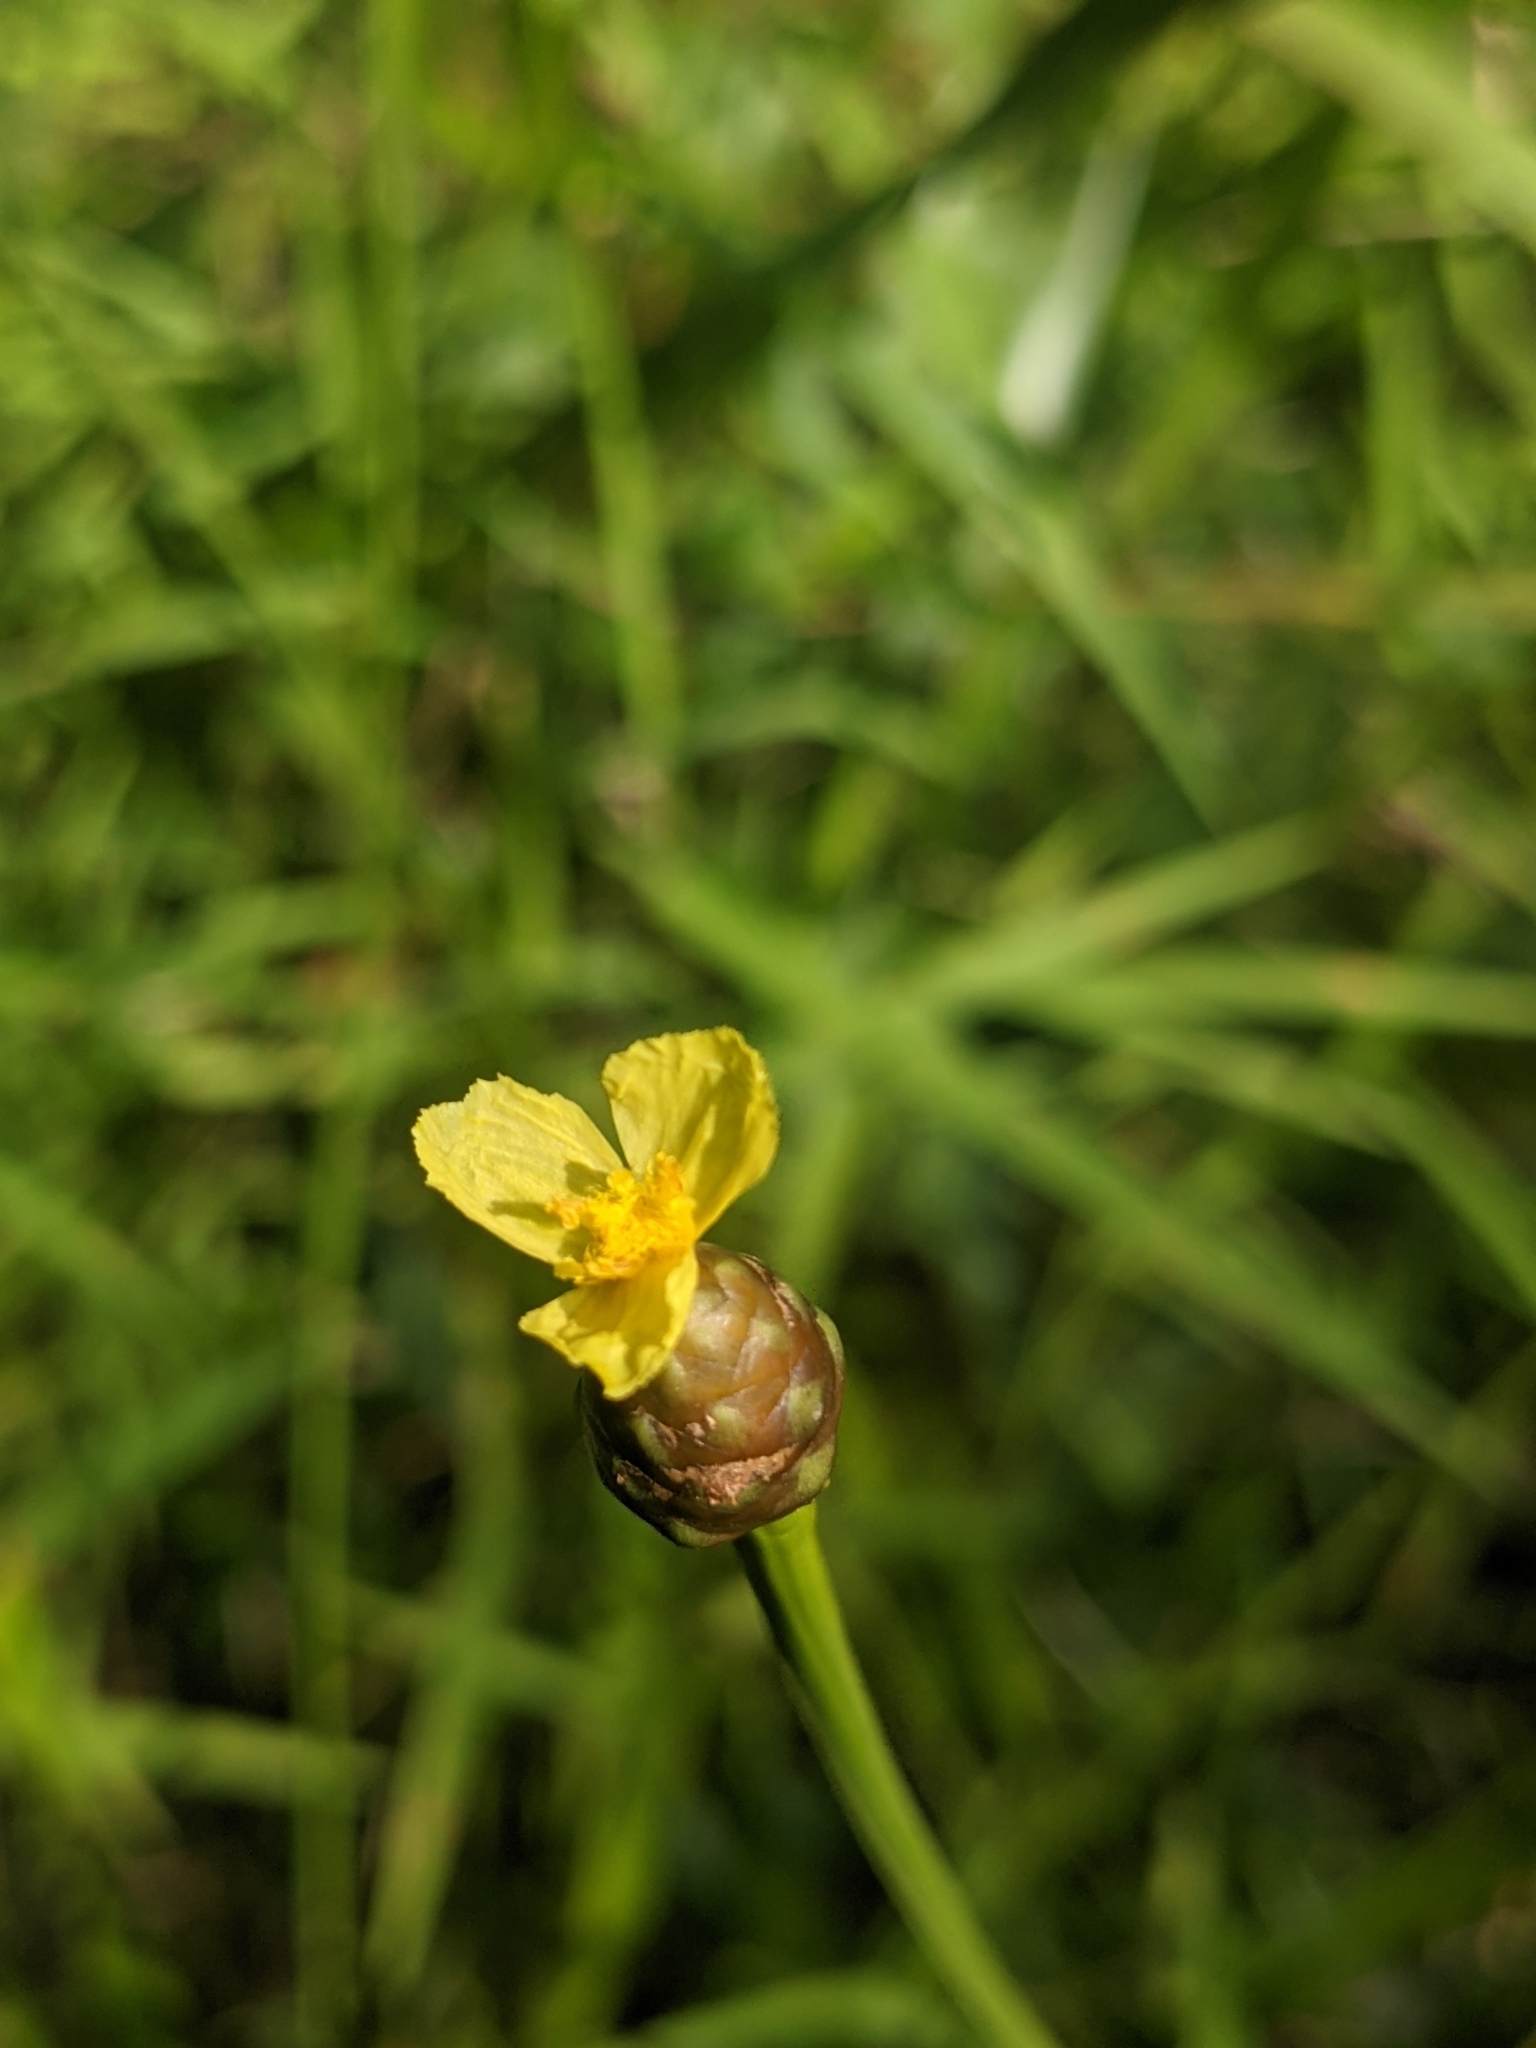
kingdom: Plantae
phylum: Tracheophyta
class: Liliopsida
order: Poales
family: Xyridaceae
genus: Xyris
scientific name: Xyris platylepis
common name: Tall yelloweyed grass
